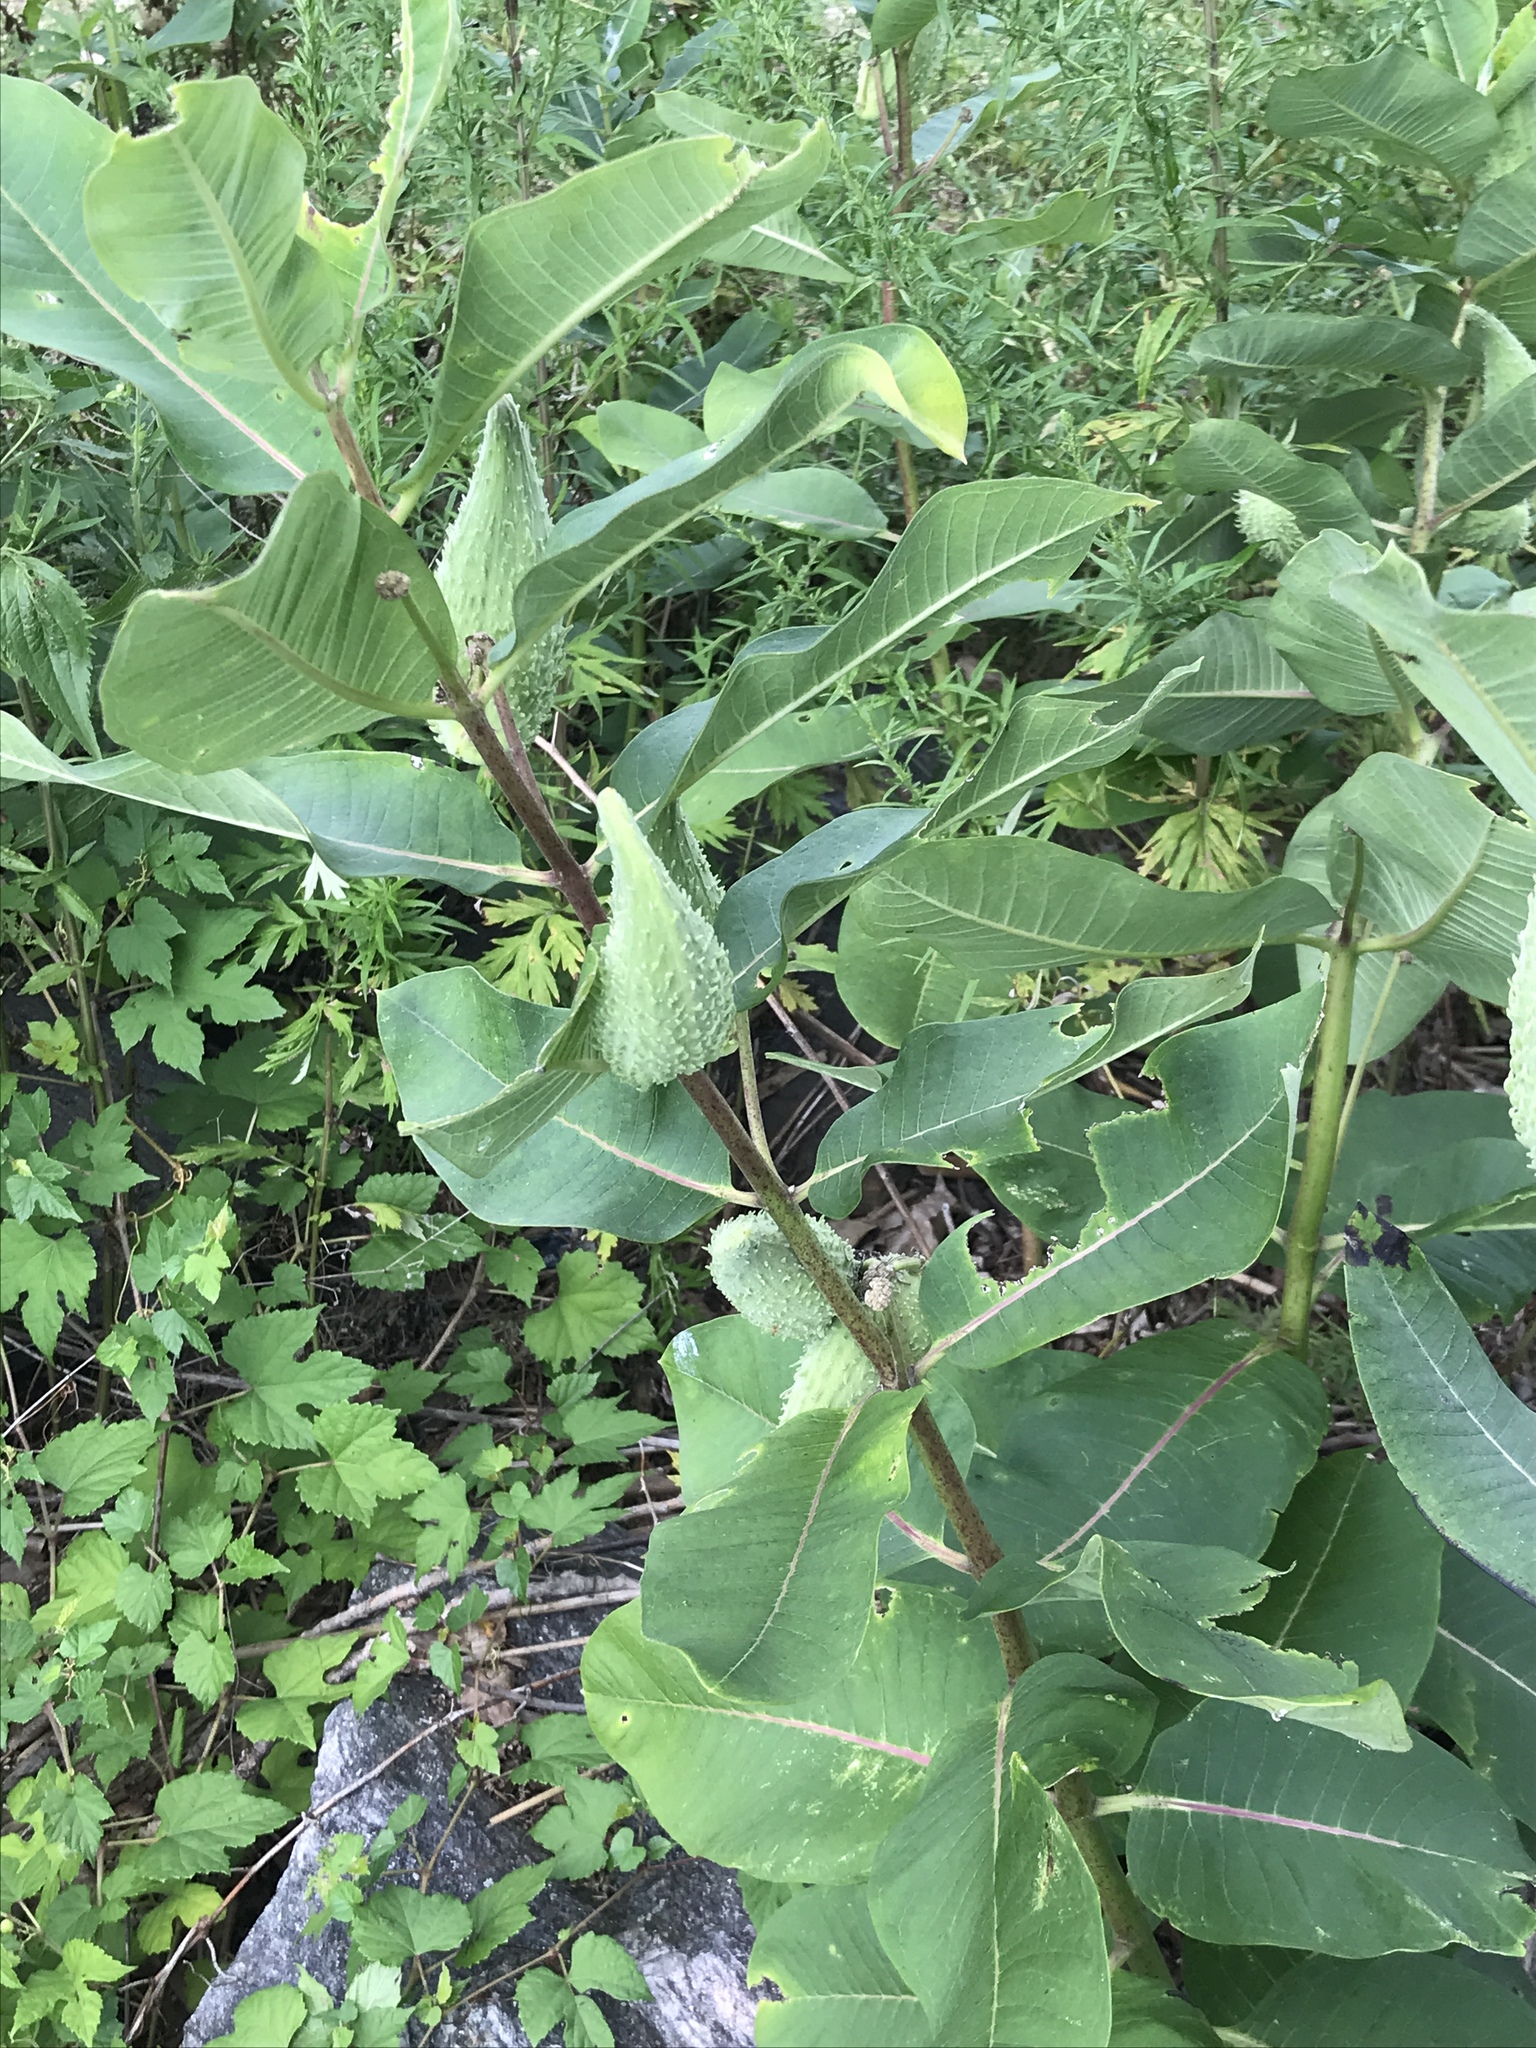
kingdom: Plantae
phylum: Tracheophyta
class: Magnoliopsida
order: Gentianales
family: Apocynaceae
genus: Asclepias
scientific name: Asclepias syriaca
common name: Common milkweed
